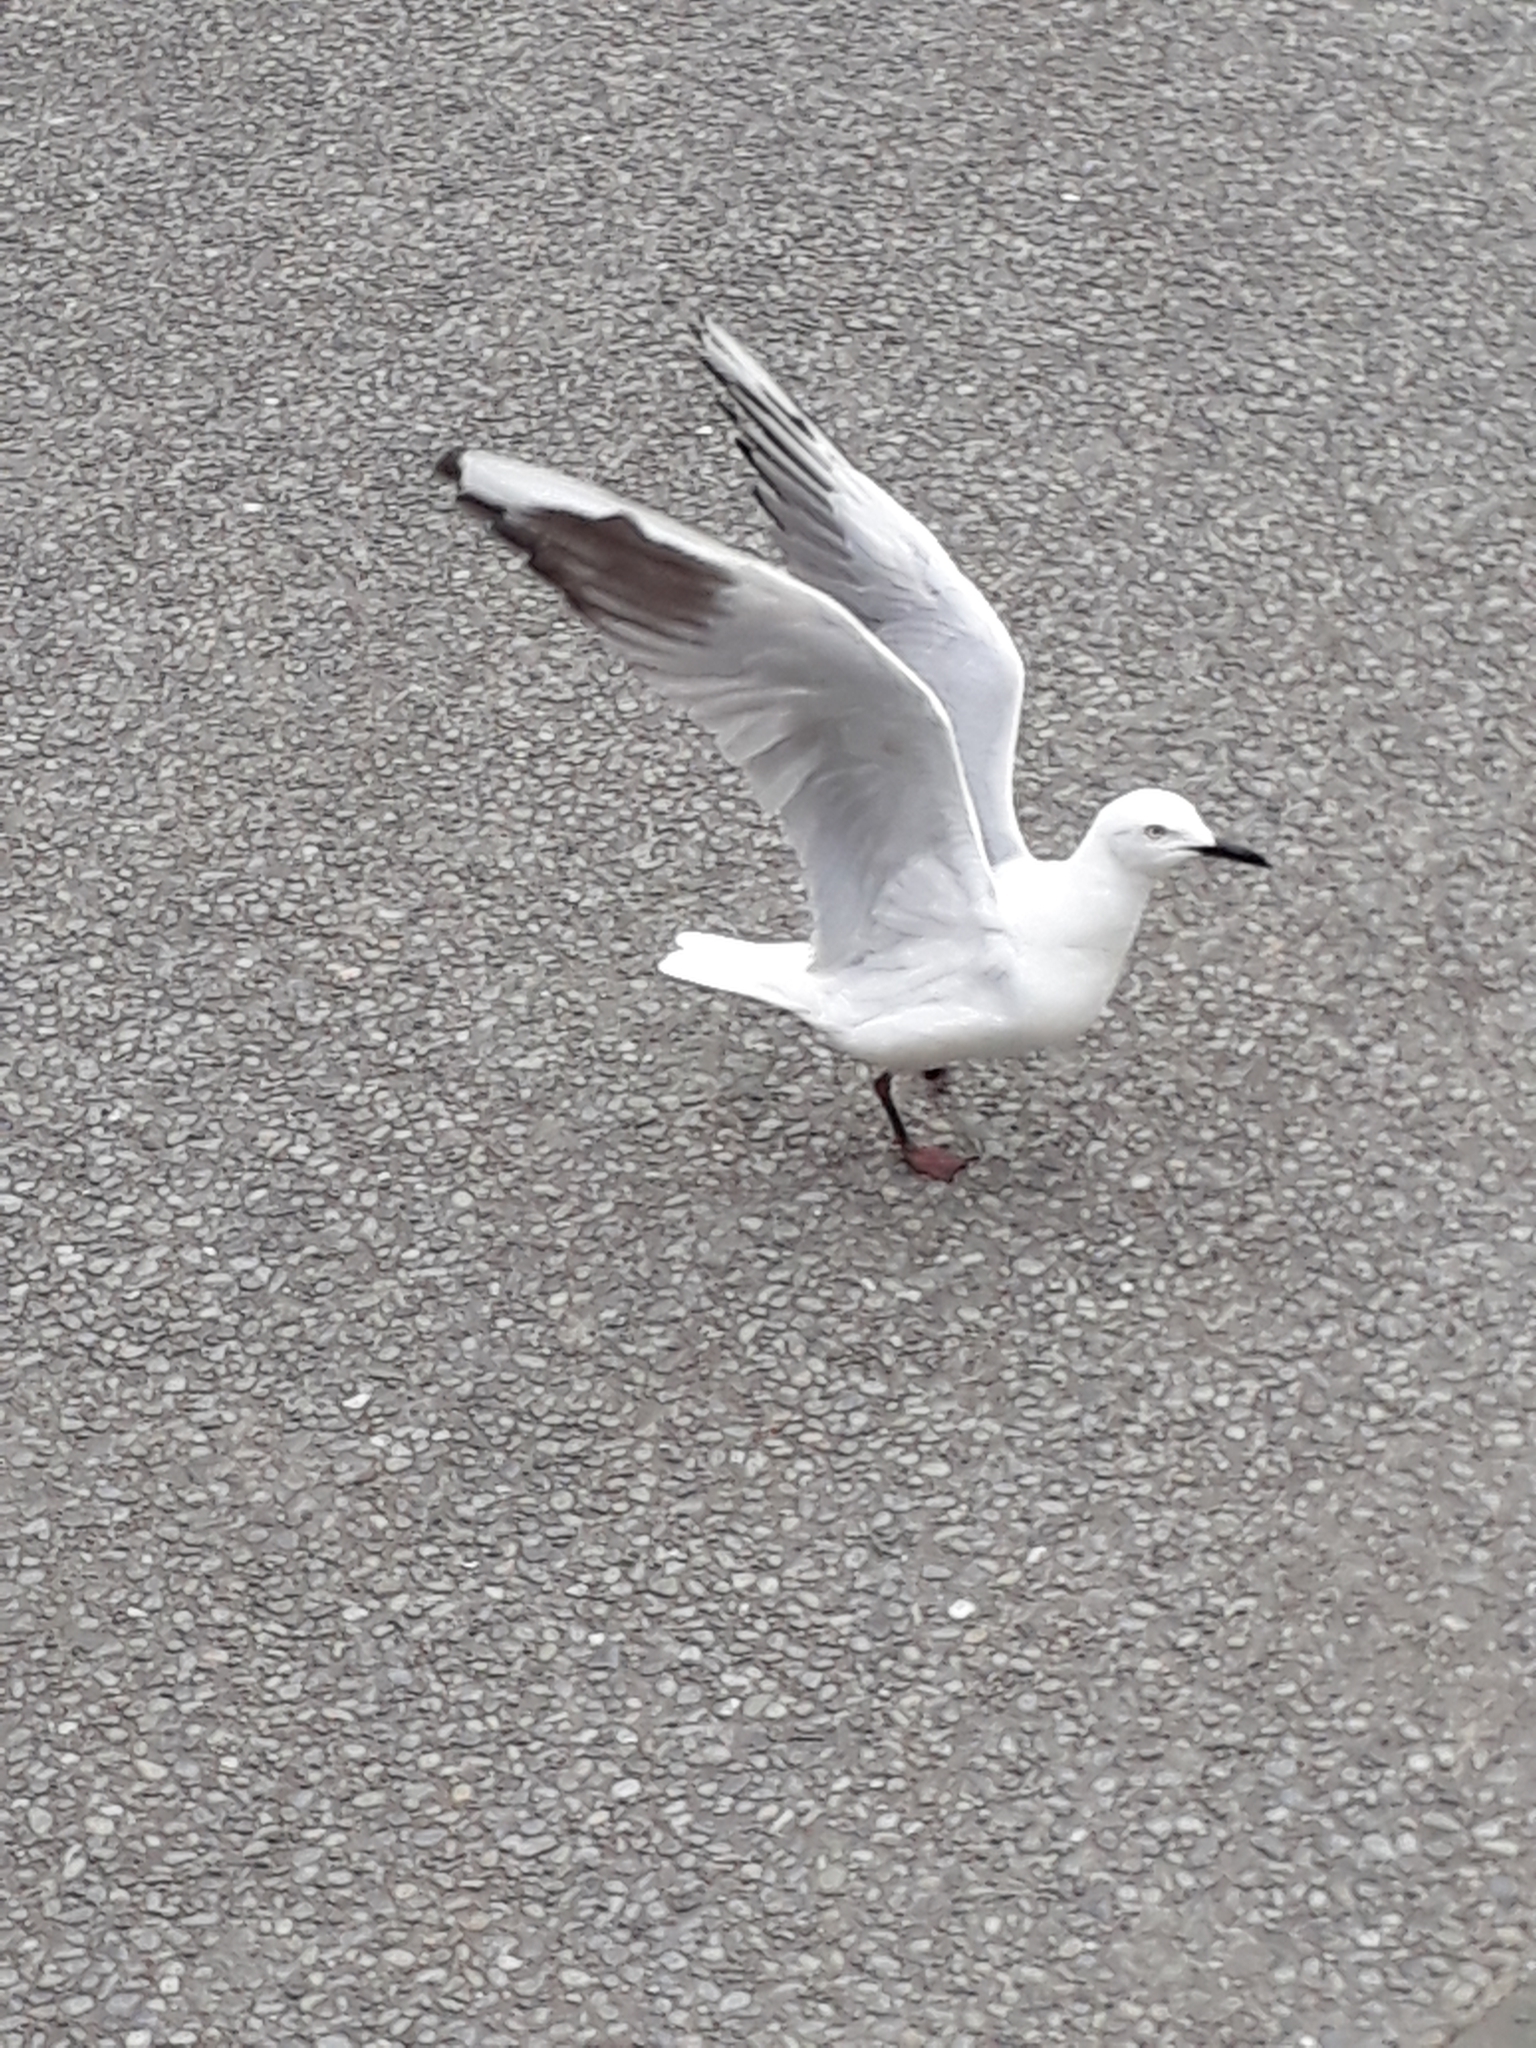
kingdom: Animalia
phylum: Chordata
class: Aves
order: Charadriiformes
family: Laridae
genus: Chroicocephalus
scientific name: Chroicocephalus bulleri
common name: Black-billed gull
